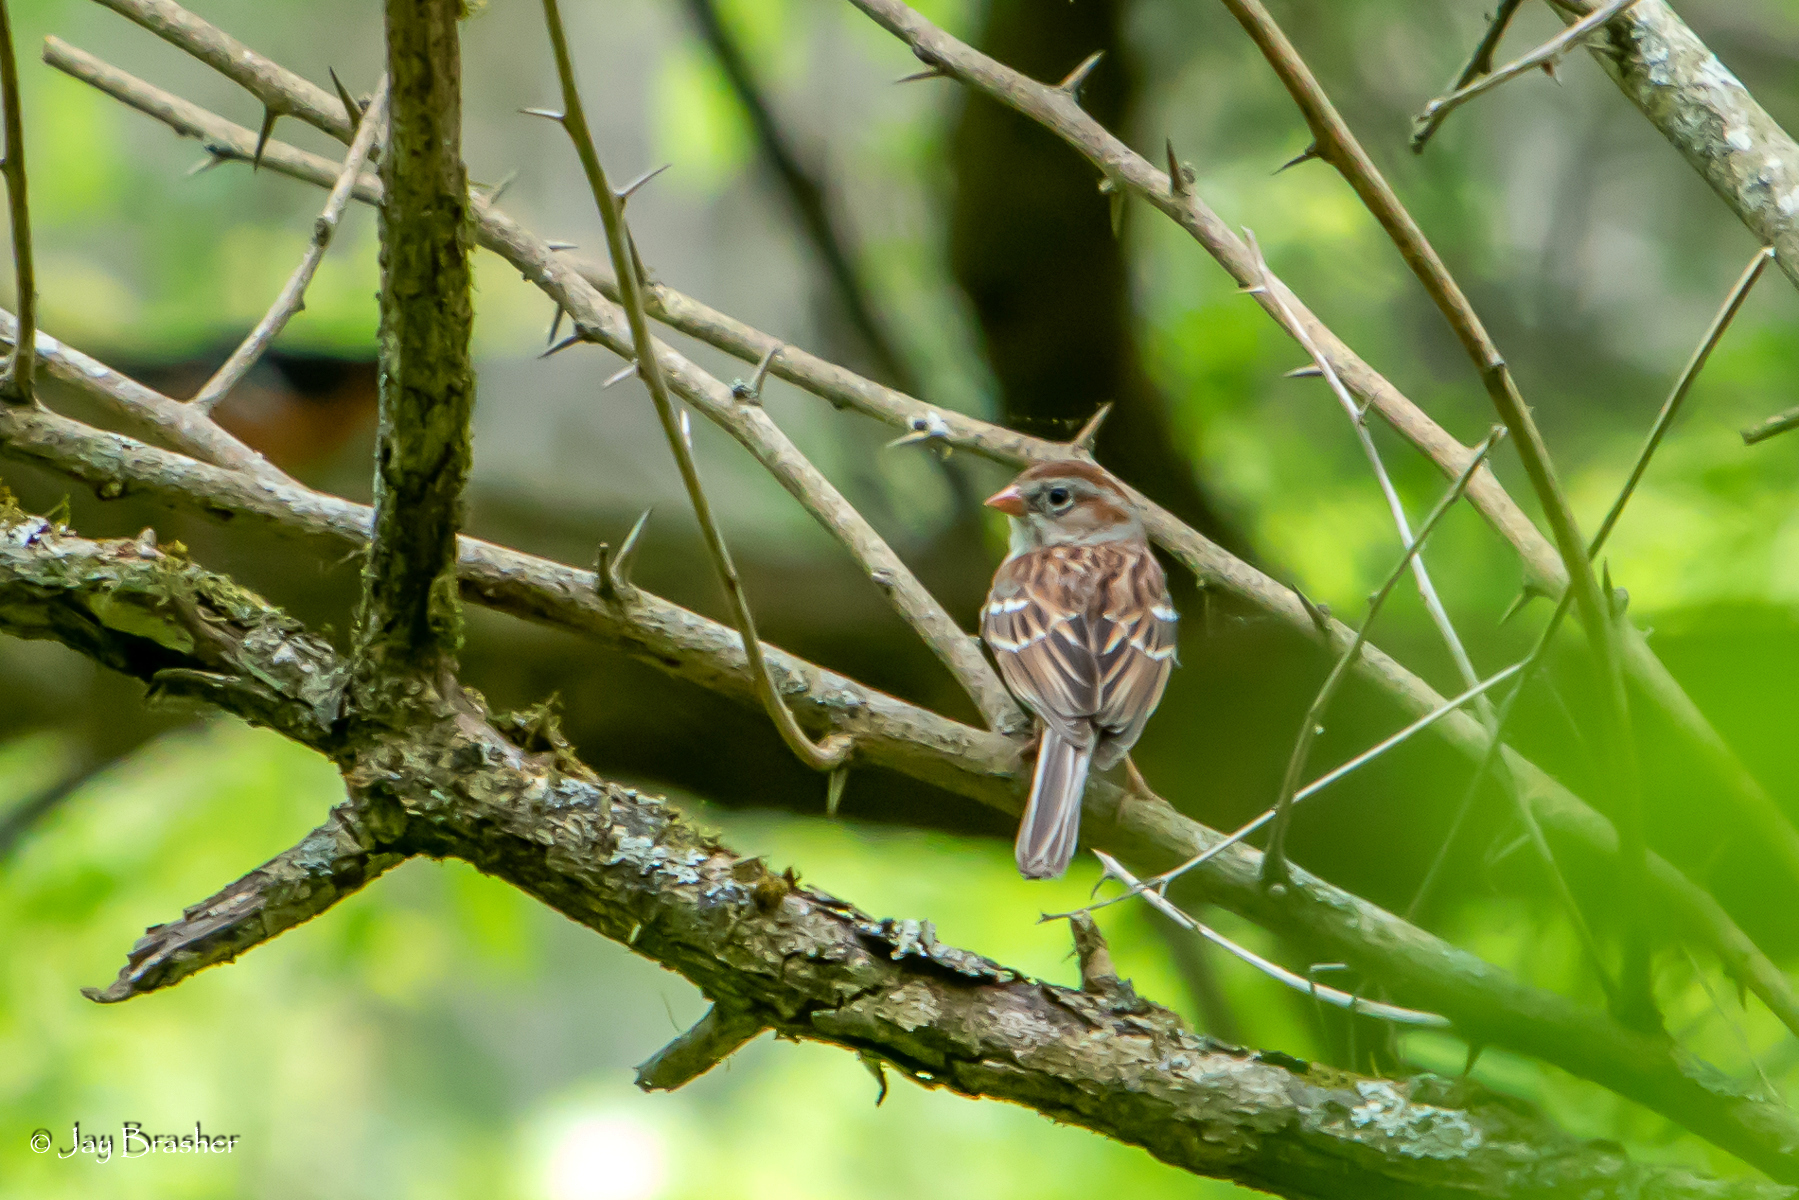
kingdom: Animalia
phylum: Chordata
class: Aves
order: Passeriformes
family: Passerellidae
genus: Spizella
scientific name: Spizella pusilla
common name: Field sparrow
